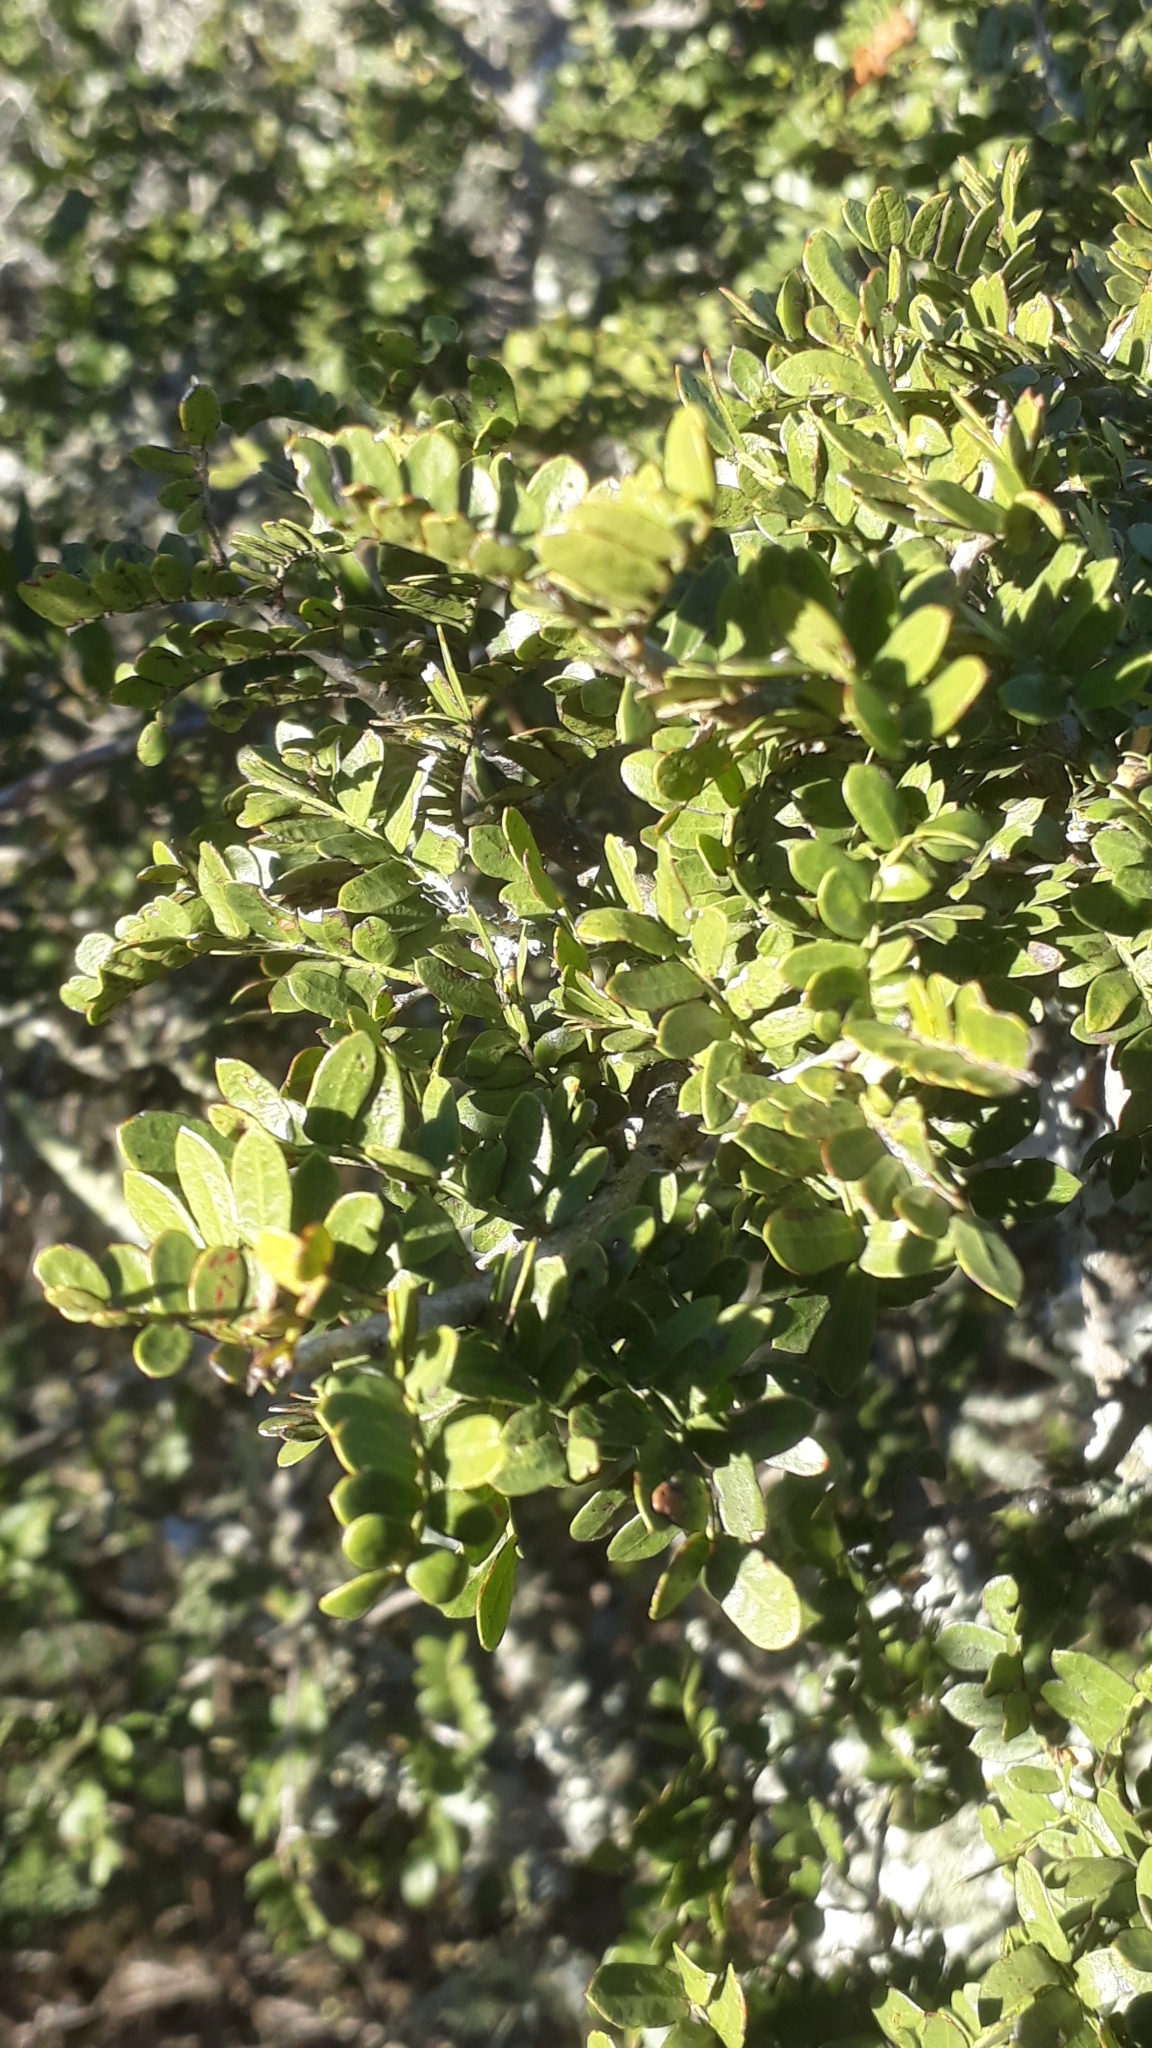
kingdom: Plantae
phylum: Tracheophyta
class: Magnoliopsida
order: Fabales
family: Fabaceae
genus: Schotia
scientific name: Schotia afra
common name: Hottentot's bean
